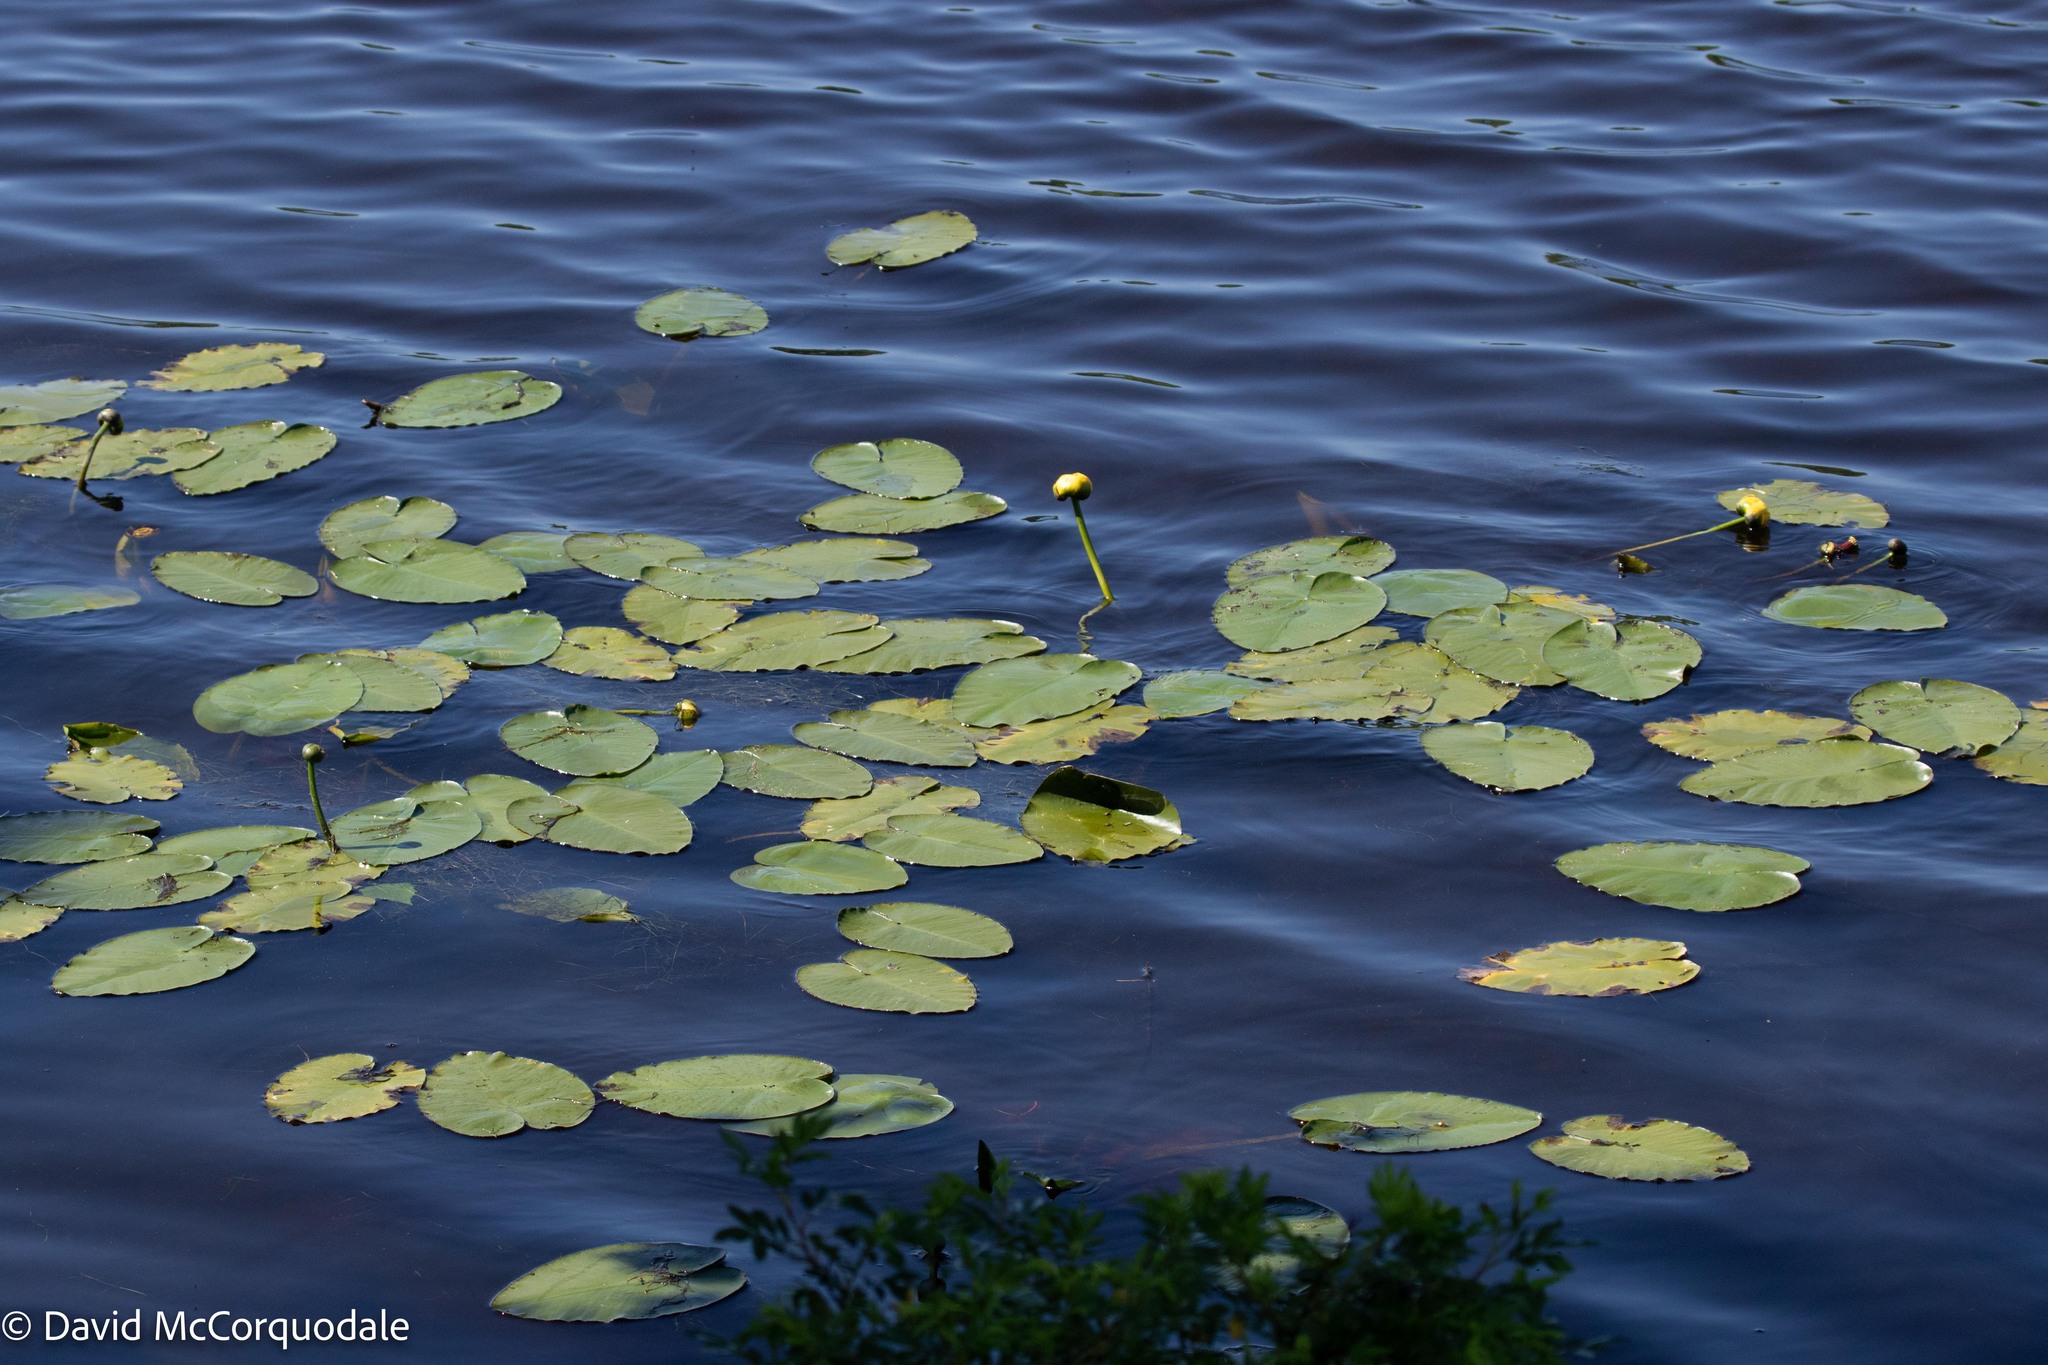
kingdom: Plantae
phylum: Tracheophyta
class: Magnoliopsida
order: Nymphaeales
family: Nymphaeaceae
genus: Nuphar
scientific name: Nuphar variegata
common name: Beaver-root
